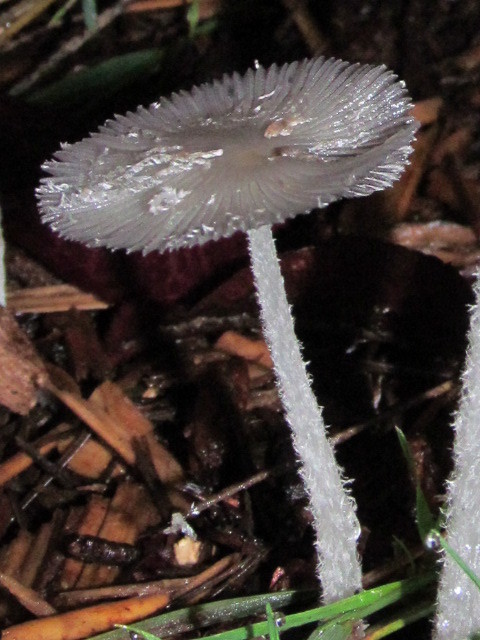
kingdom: Fungi
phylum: Basidiomycota
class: Agaricomycetes
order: Agaricales
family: Psathyrellaceae
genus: Coprinopsis
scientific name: Coprinopsis lagopus
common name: Hare'sfoot inkcap
